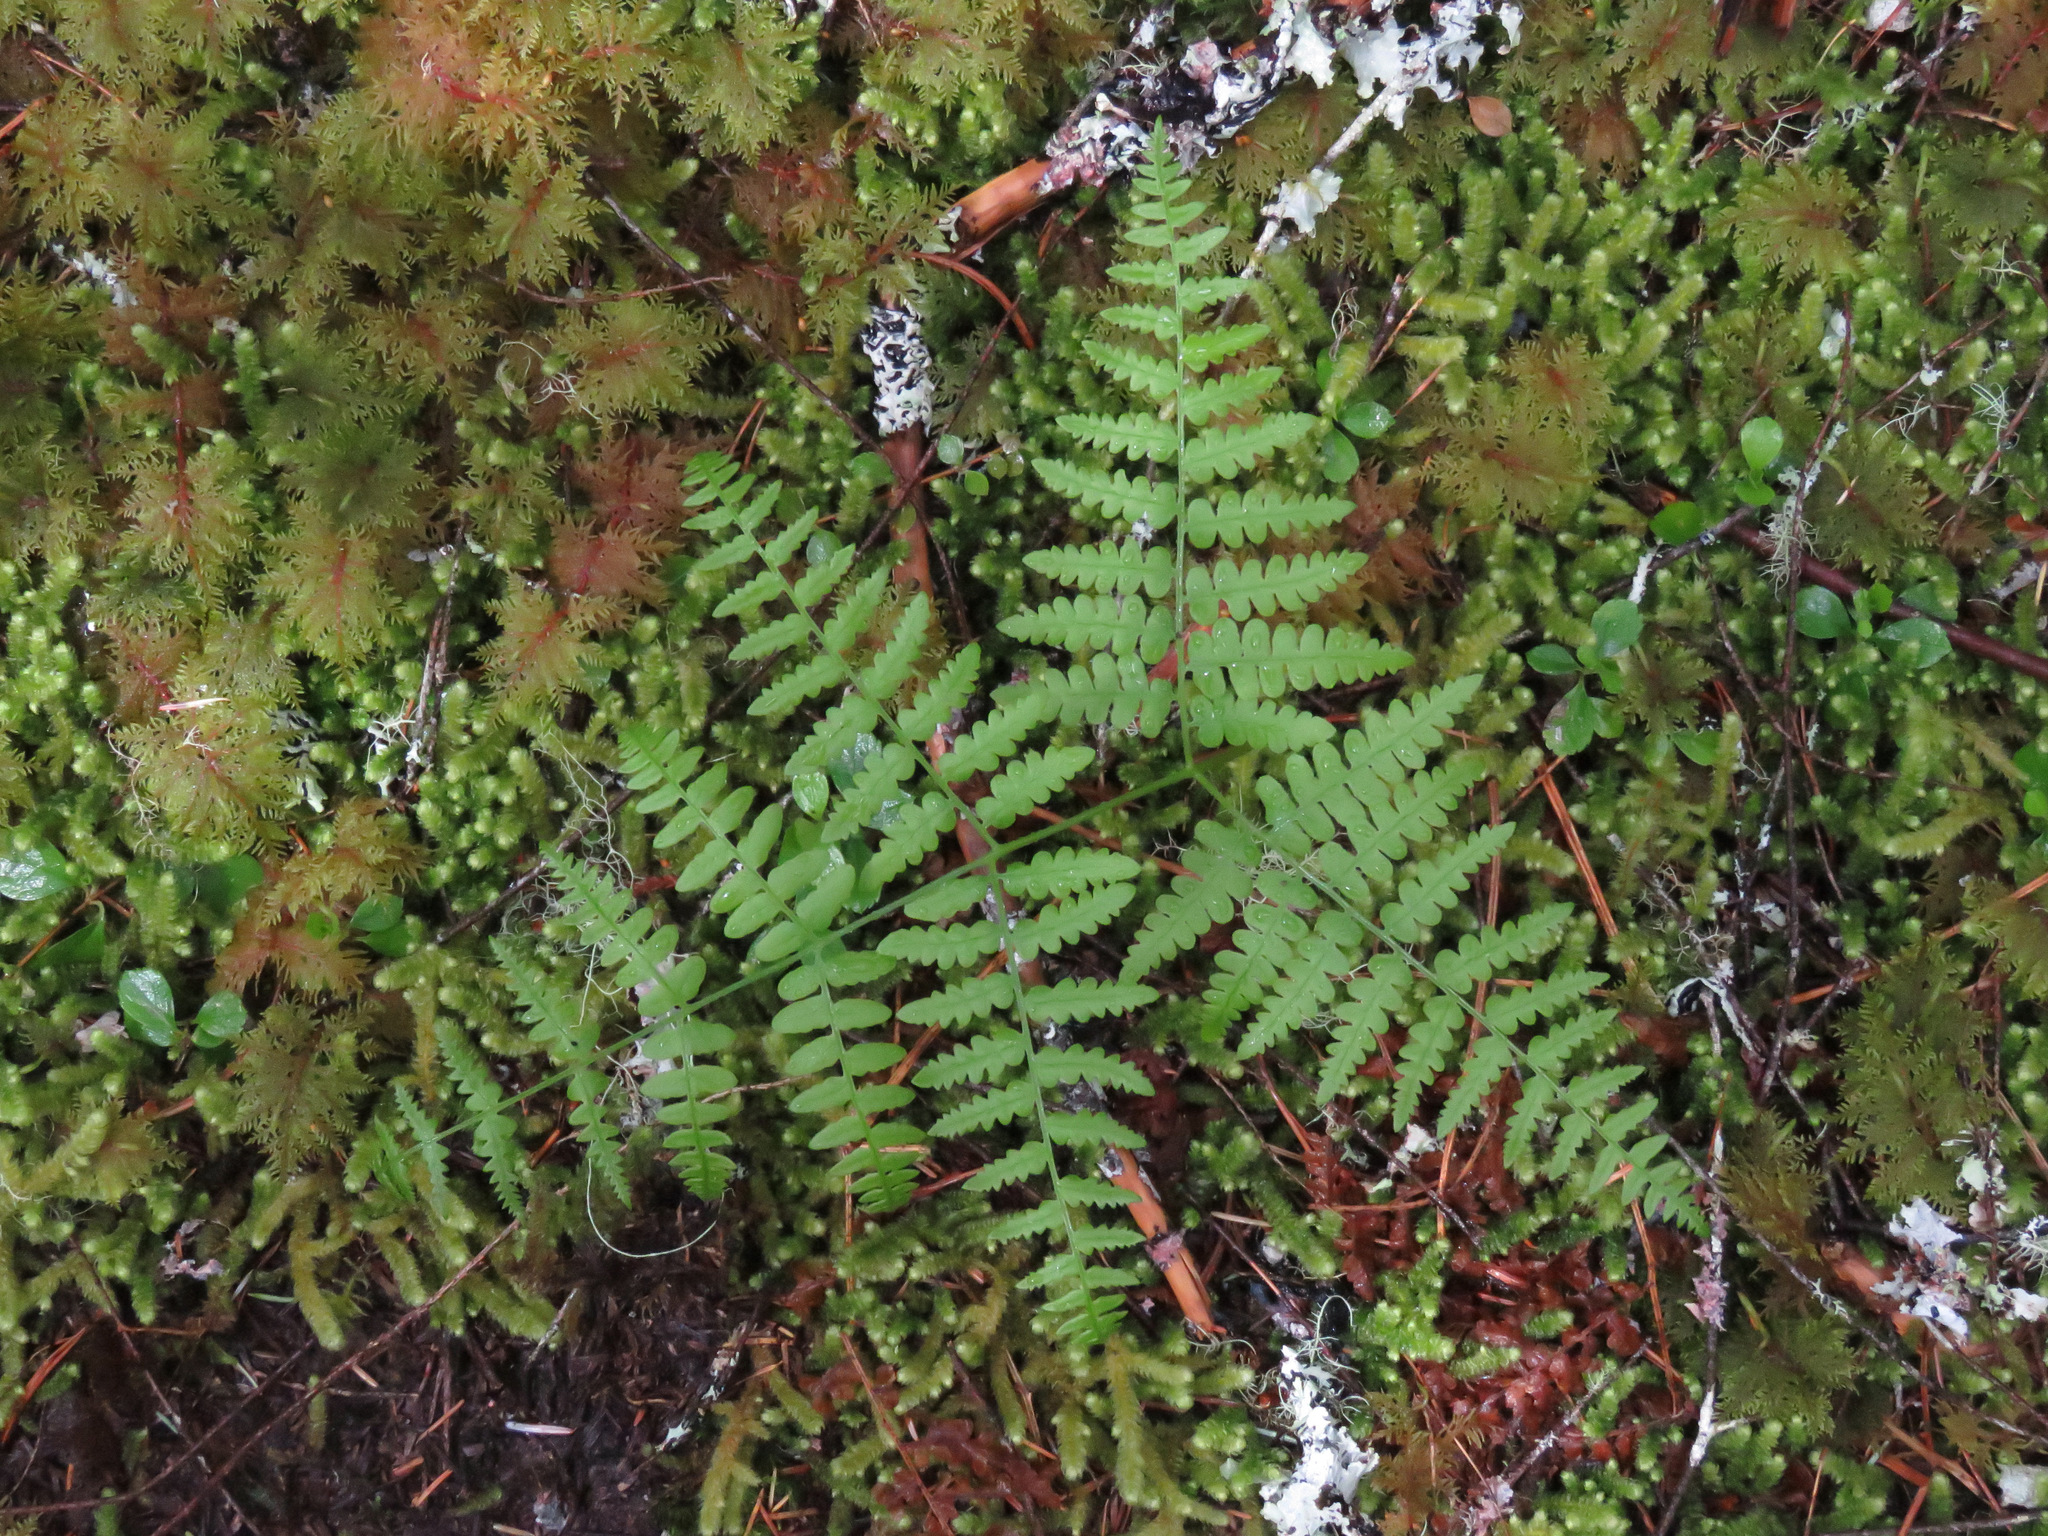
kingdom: Plantae
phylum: Tracheophyta
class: Polypodiopsida
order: Polypodiales
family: Dennstaedtiaceae
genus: Pteridium
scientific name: Pteridium aquilinum
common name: Bracken
